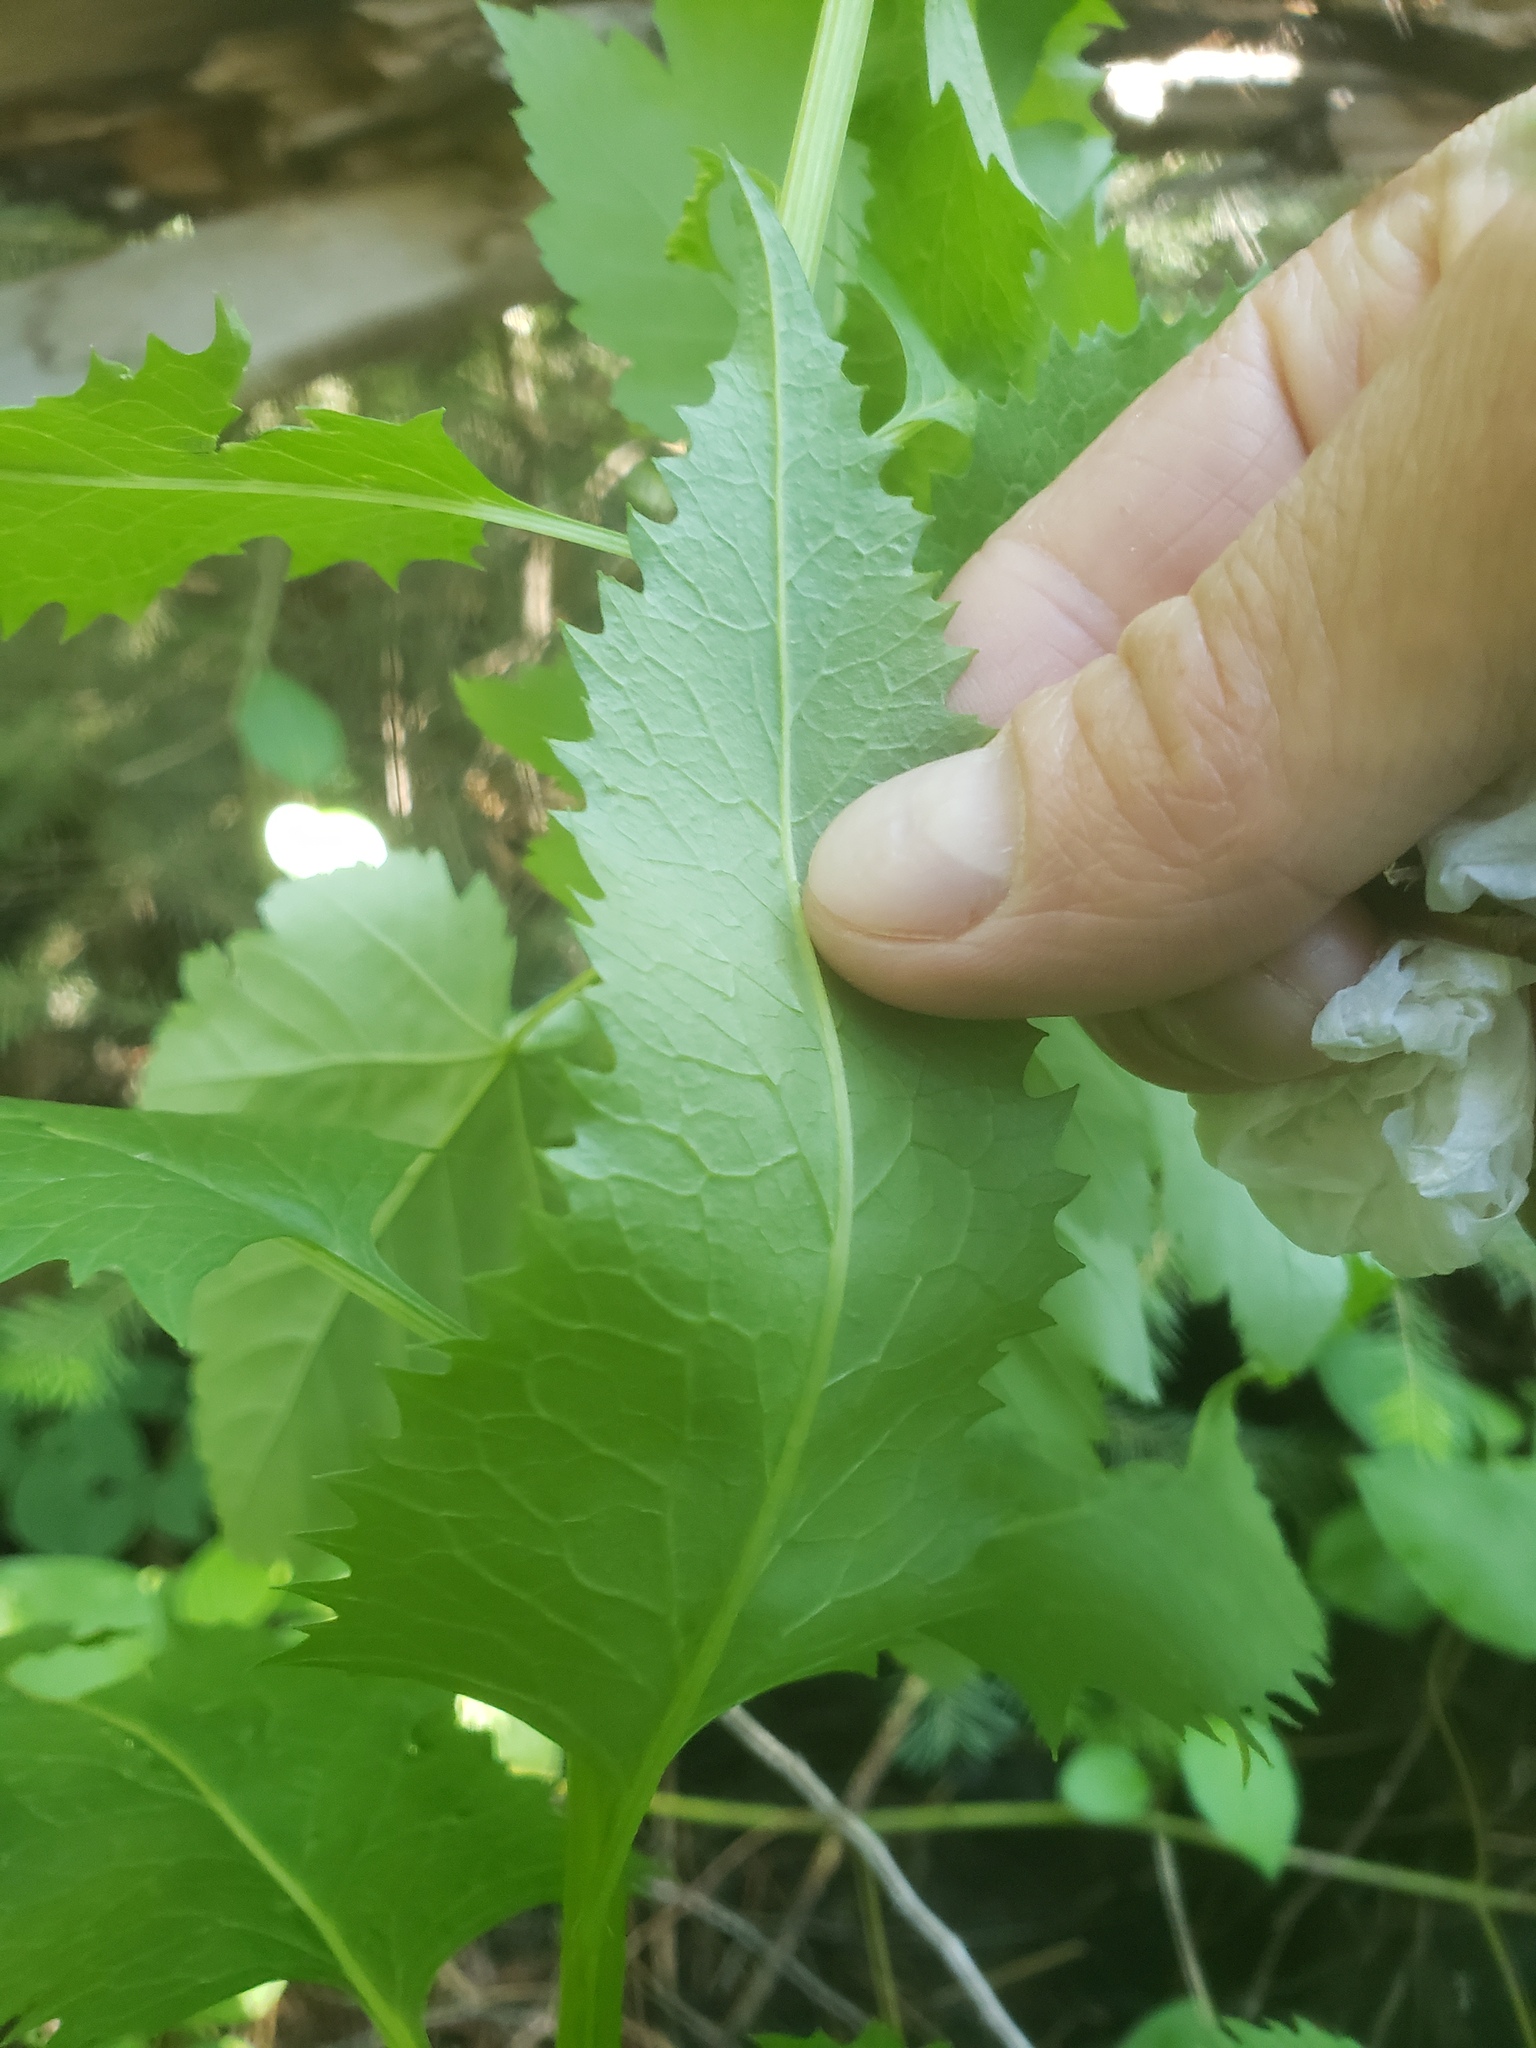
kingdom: Plantae
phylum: Tracheophyta
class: Magnoliopsida
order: Asterales
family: Asteraceae
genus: Senecio
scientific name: Senecio triangularis
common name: Arrowleaf butterweed
